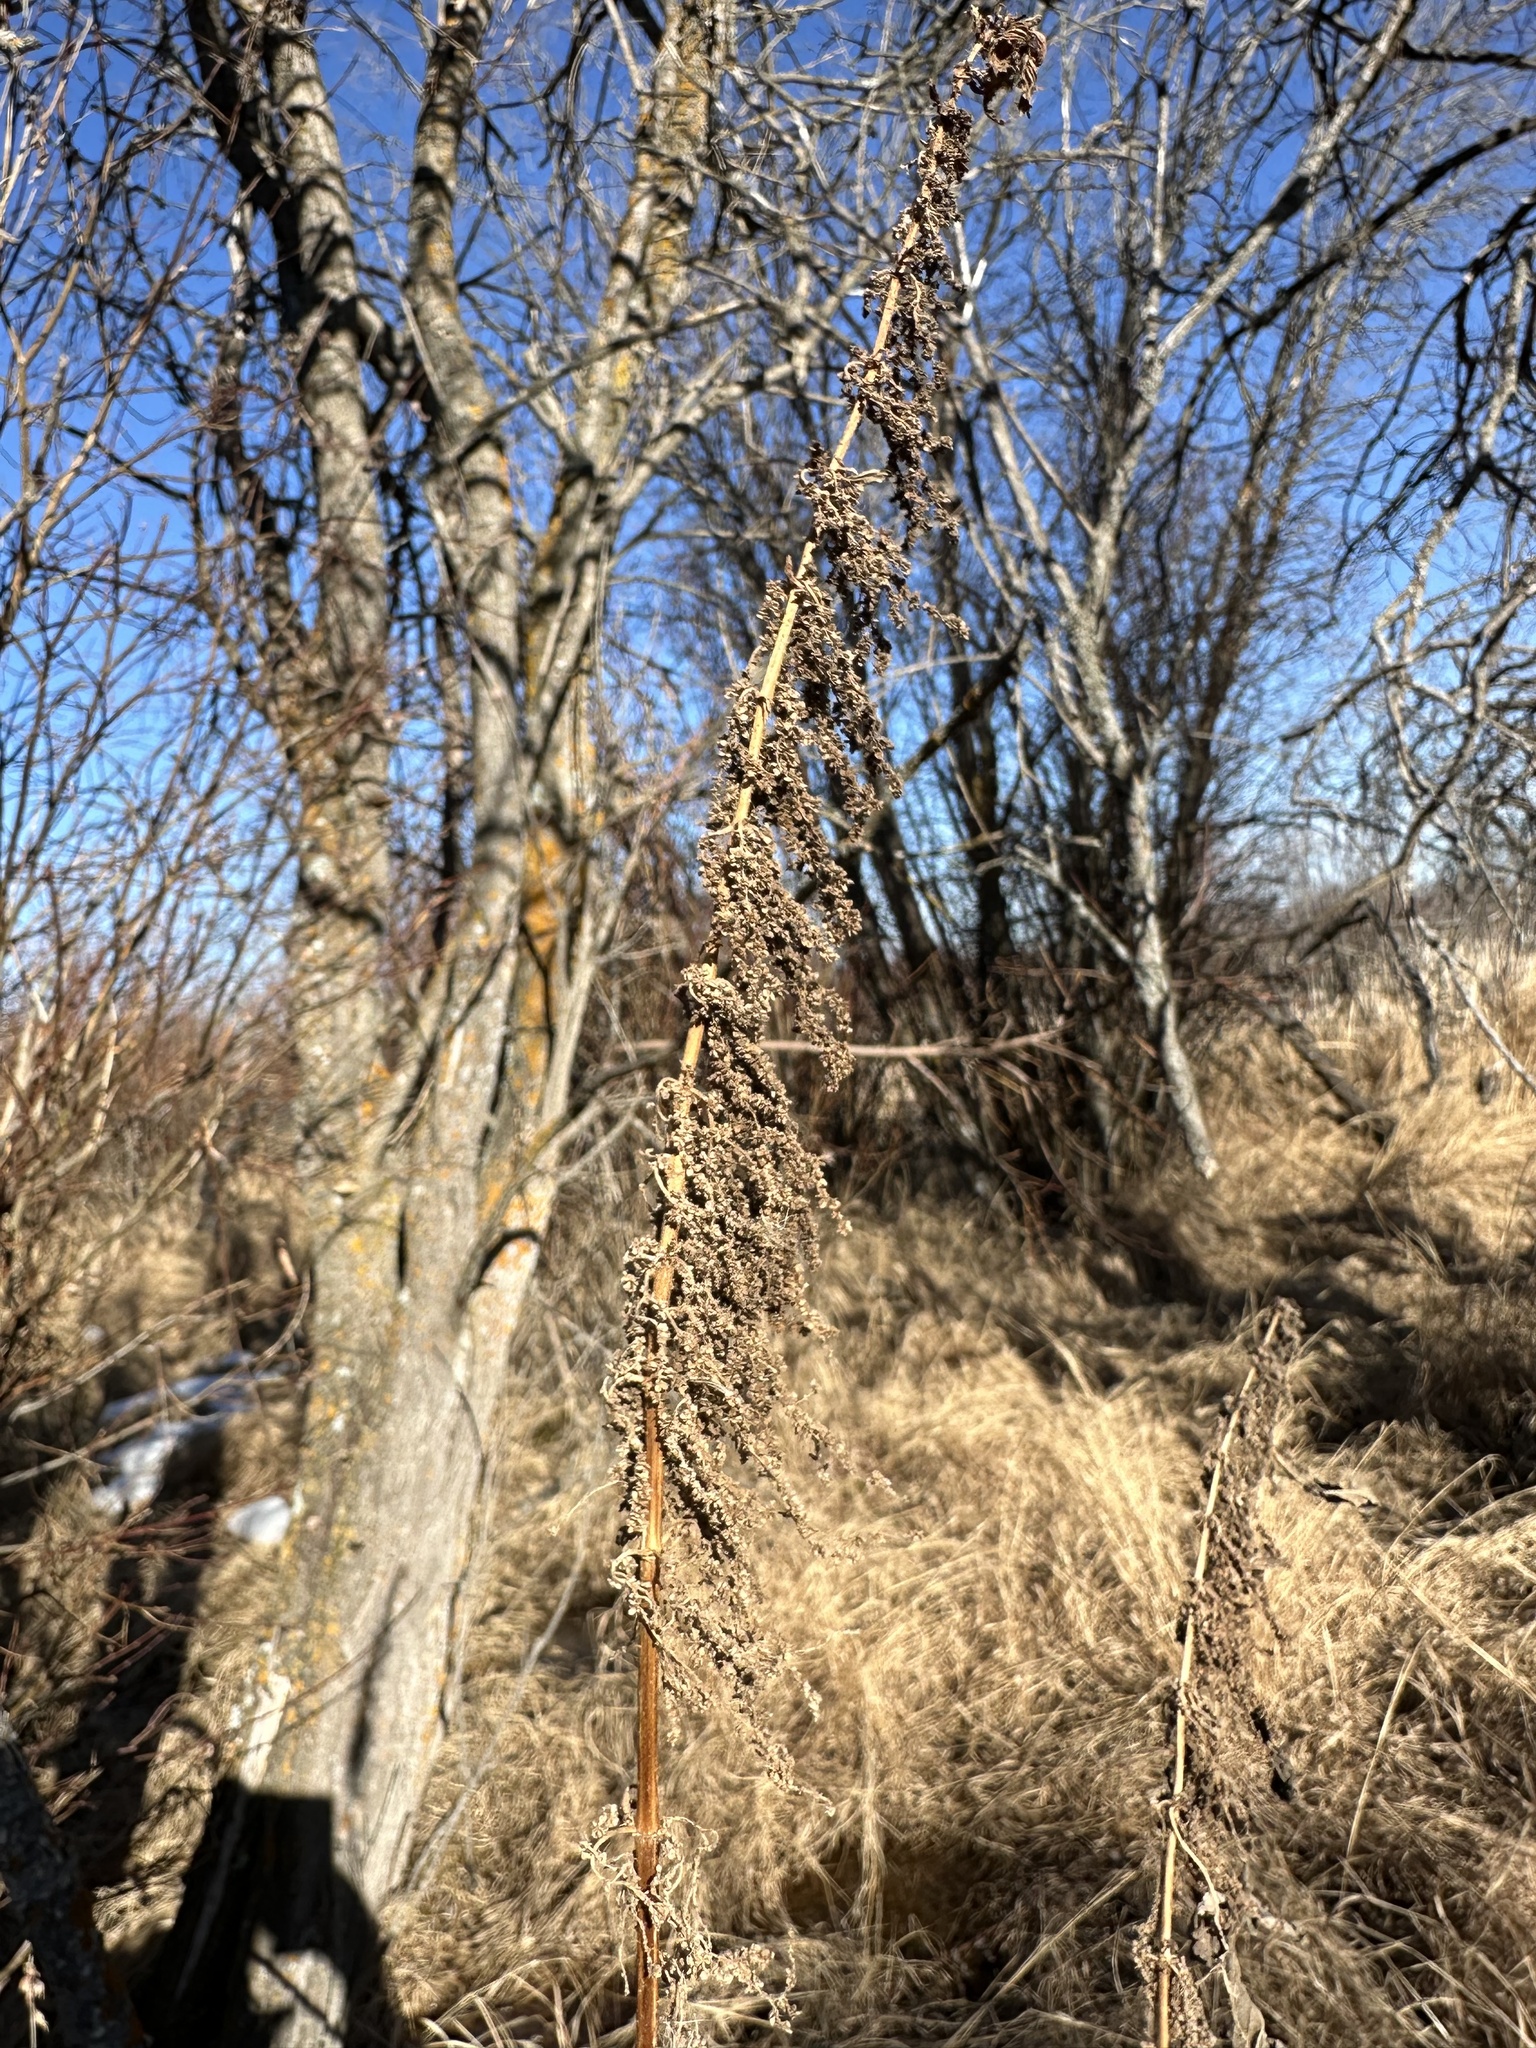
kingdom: Plantae
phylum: Tracheophyta
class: Magnoliopsida
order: Rosales
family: Urticaceae
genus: Urtica
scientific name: Urtica gracilis
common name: Slender stinging nettle
